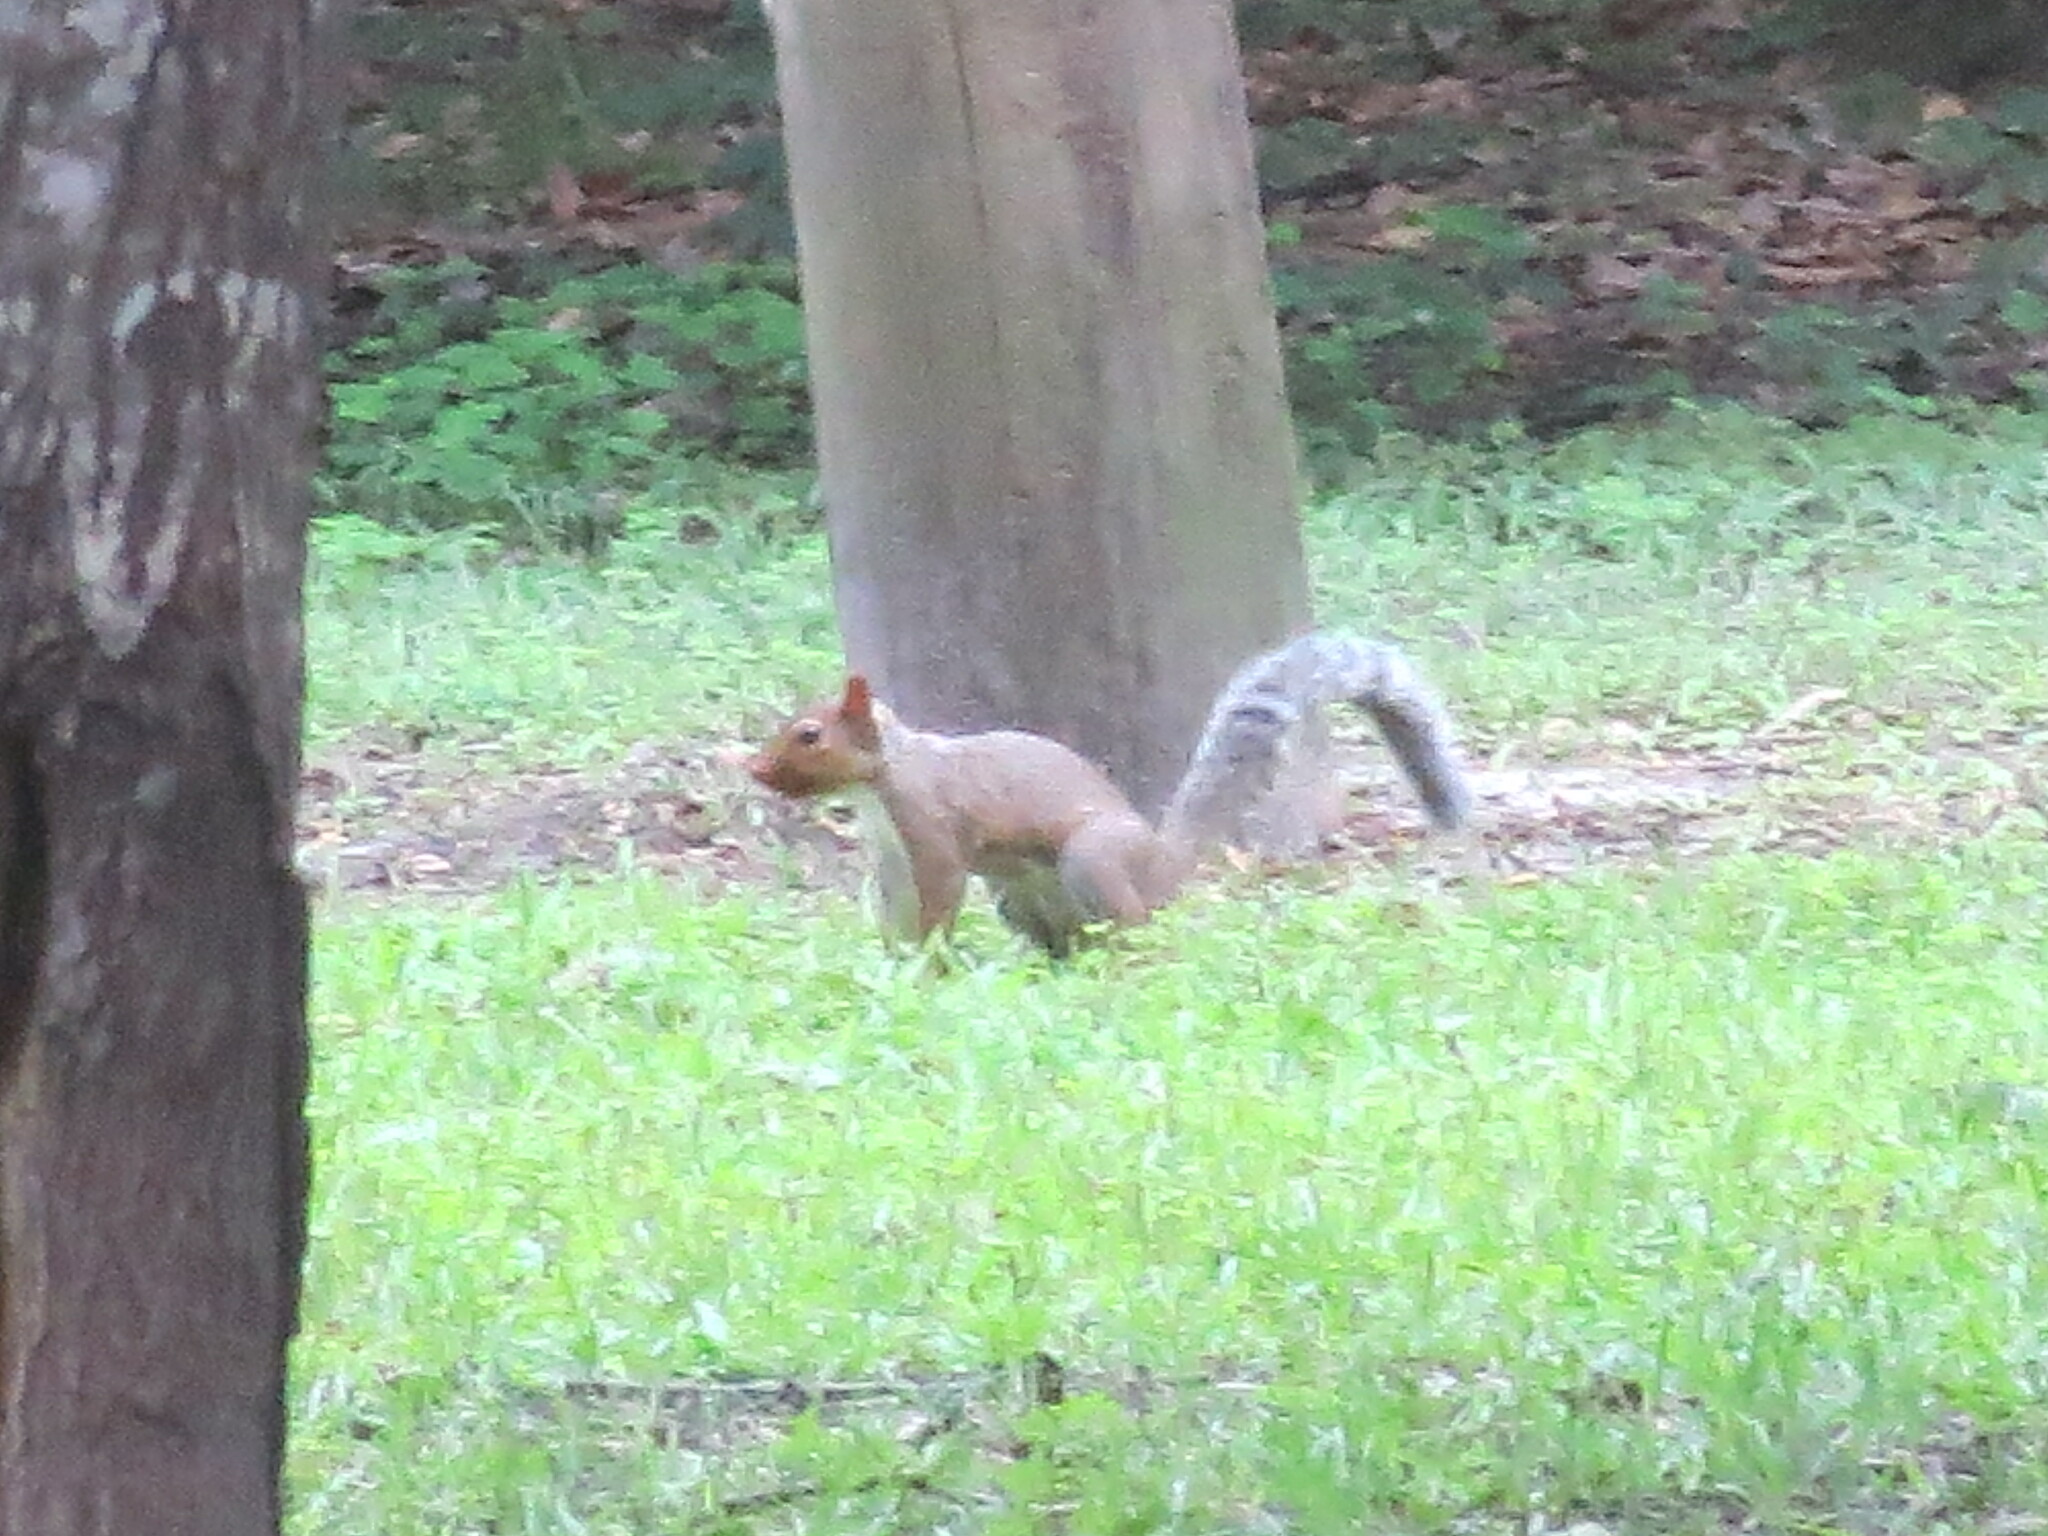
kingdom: Animalia
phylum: Chordata
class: Mammalia
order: Rodentia
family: Sciuridae
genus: Sciurus
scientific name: Sciurus carolinensis
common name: Eastern gray squirrel
